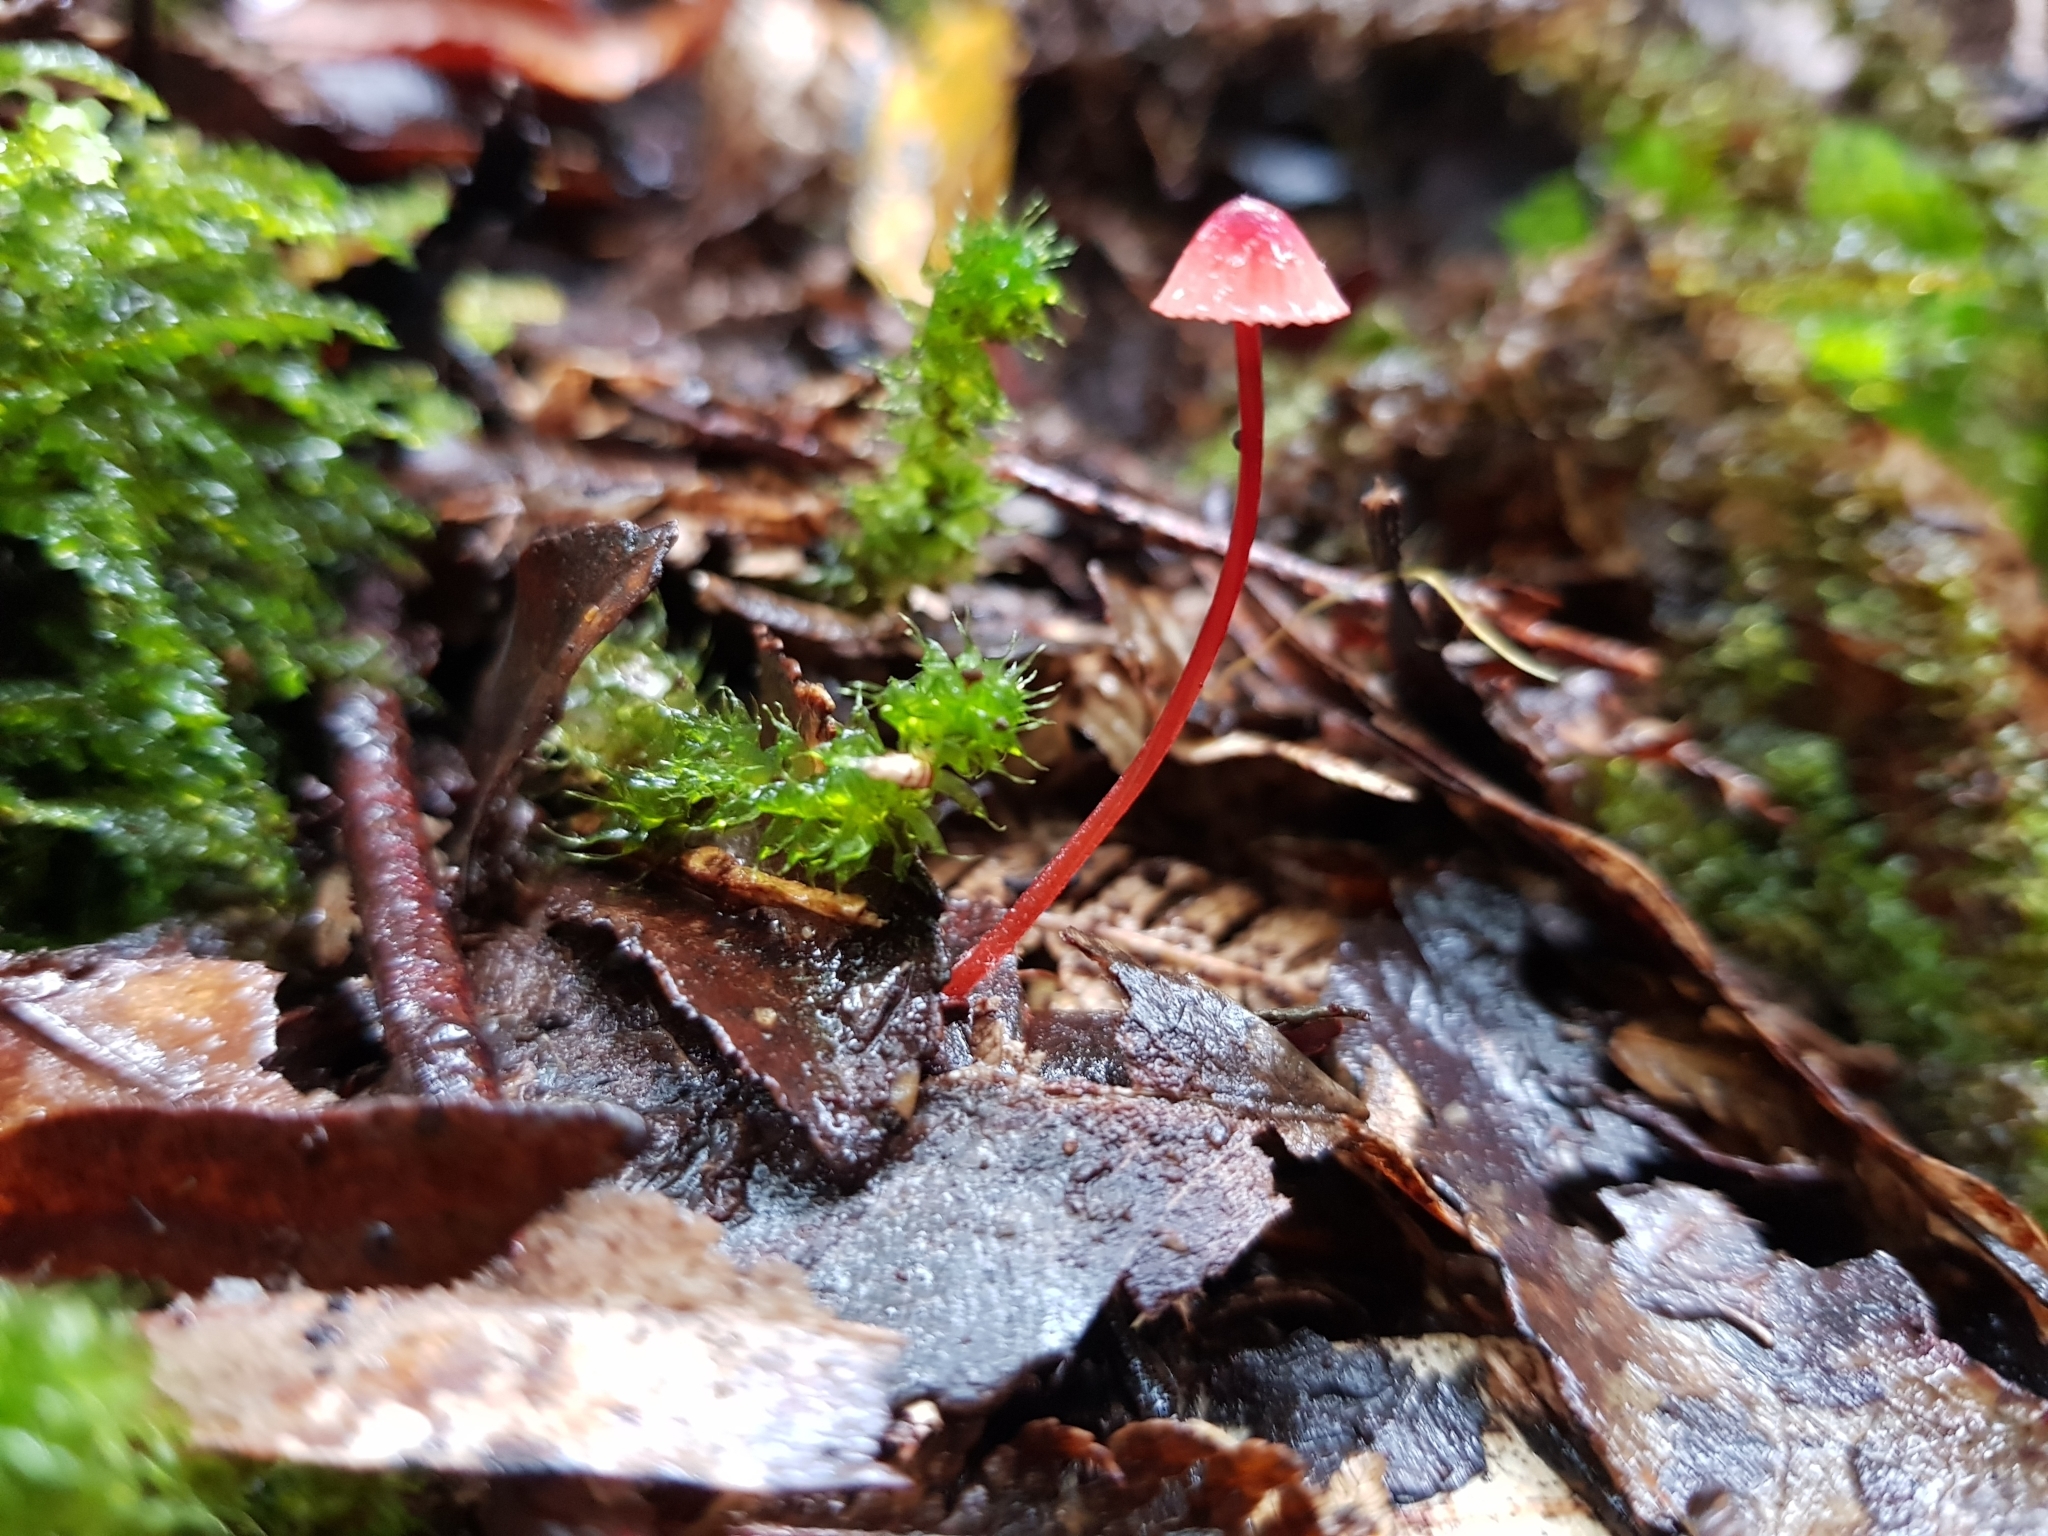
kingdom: Fungi
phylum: Basidiomycota
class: Agaricomycetes
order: Agaricales
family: Mycenaceae
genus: Mycena
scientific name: Mycena ura
